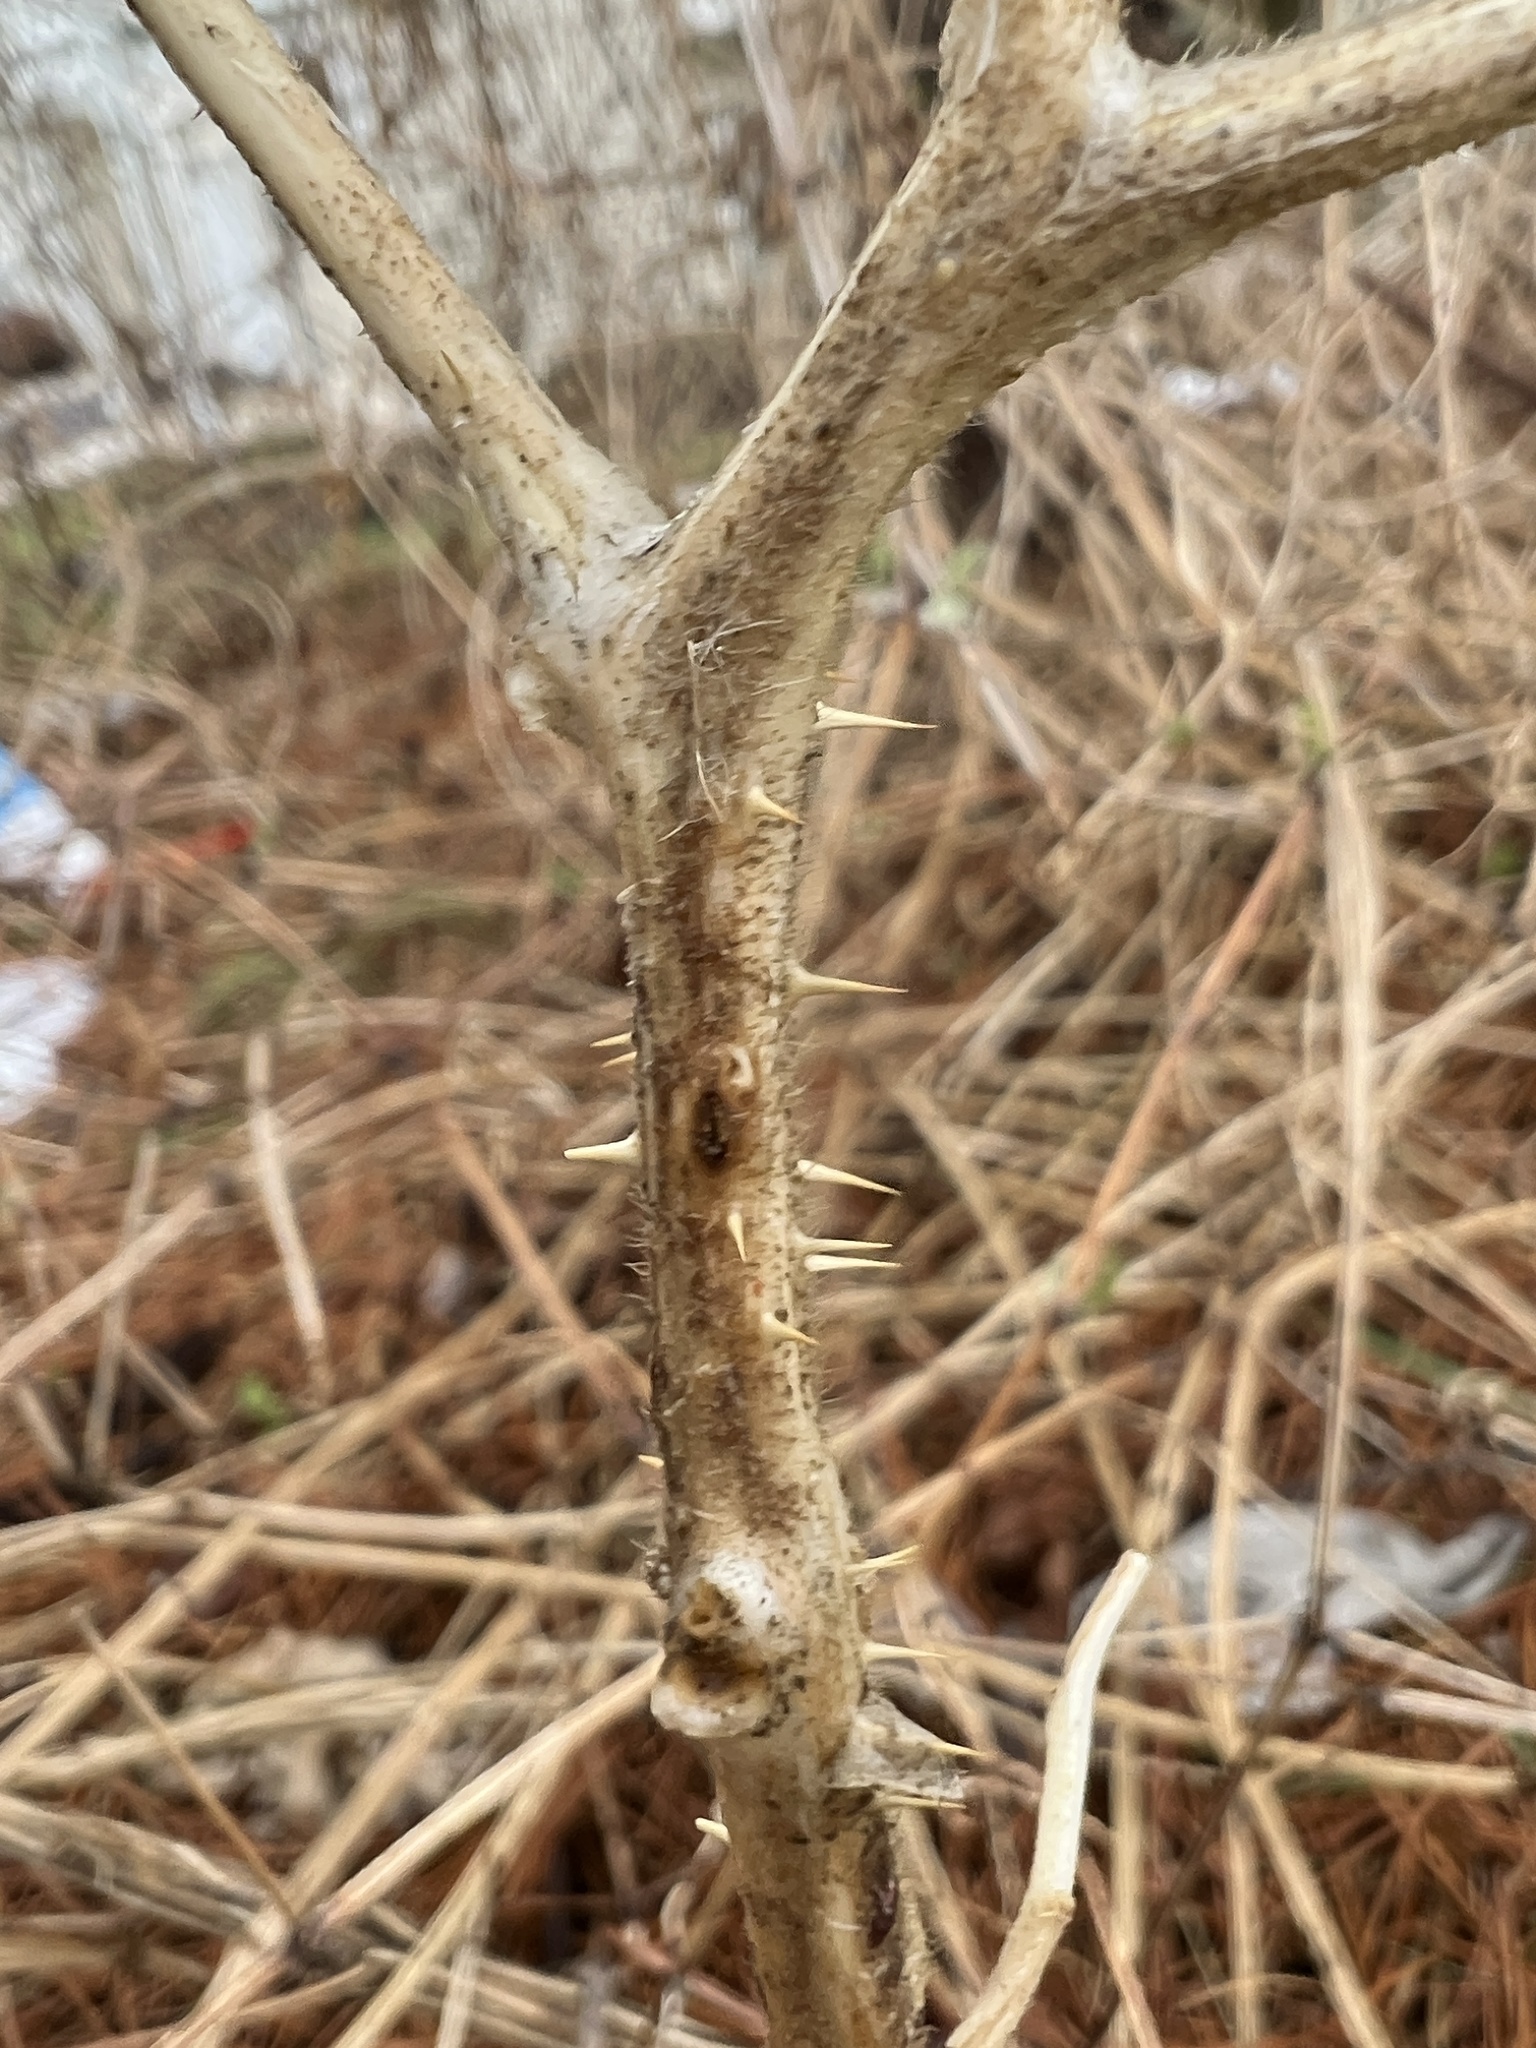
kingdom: Plantae
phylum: Tracheophyta
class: Magnoliopsida
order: Solanales
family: Solanaceae
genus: Solanum
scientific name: Solanum carolinense
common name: Horse-nettle
